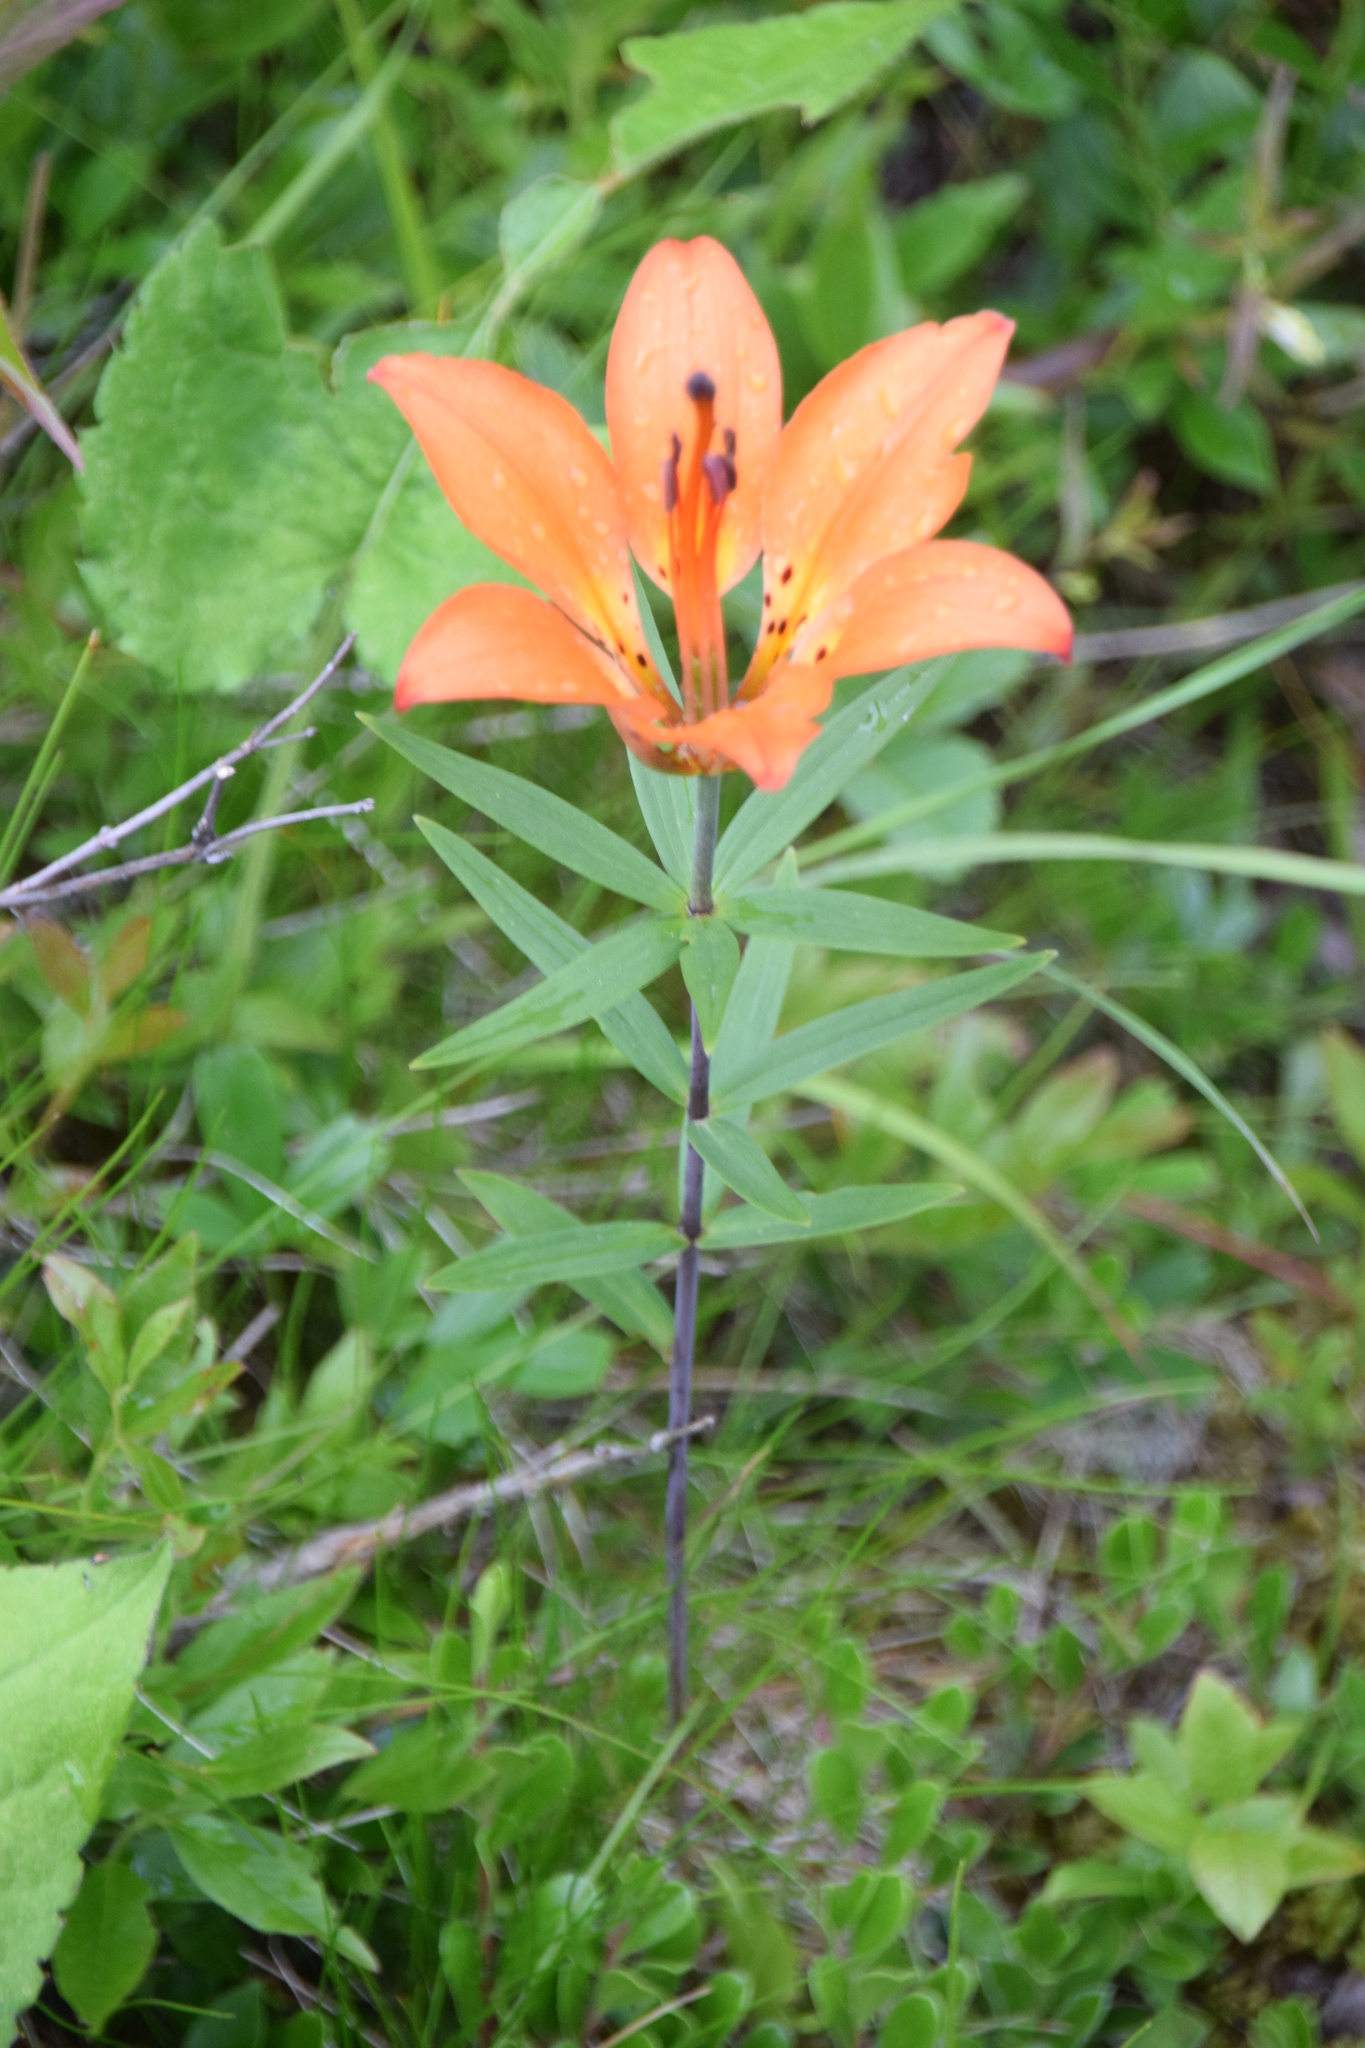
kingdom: Plantae
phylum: Tracheophyta
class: Liliopsida
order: Liliales
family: Liliaceae
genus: Lilium
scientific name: Lilium philadelphicum
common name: Red lily
